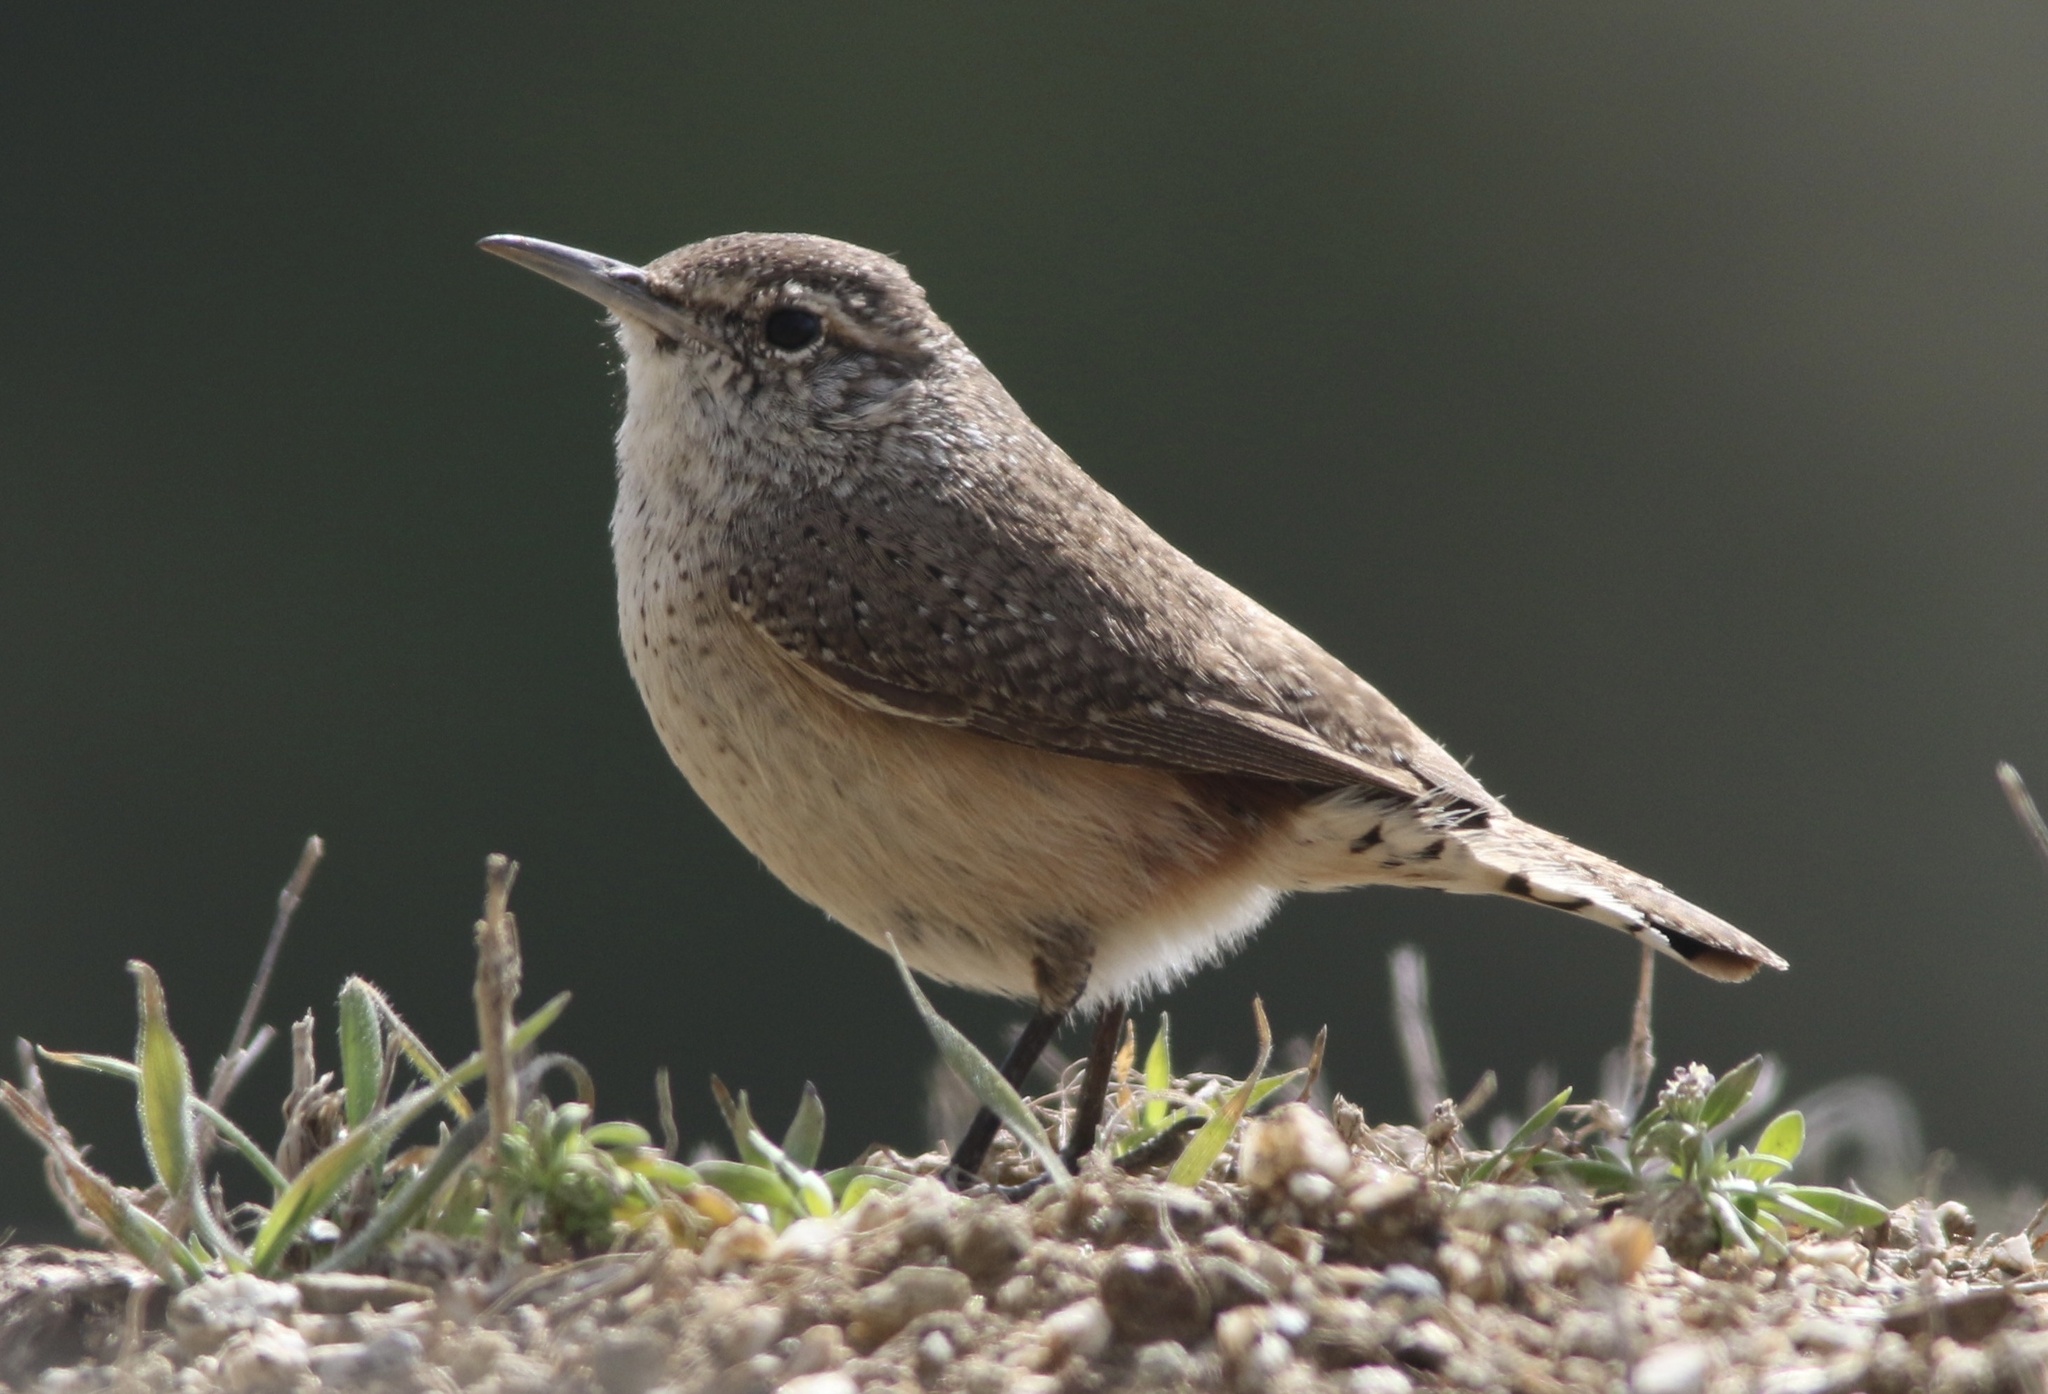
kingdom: Animalia
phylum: Chordata
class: Aves
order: Passeriformes
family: Troglodytidae
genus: Salpinctes
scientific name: Salpinctes obsoletus
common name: Rock wren
